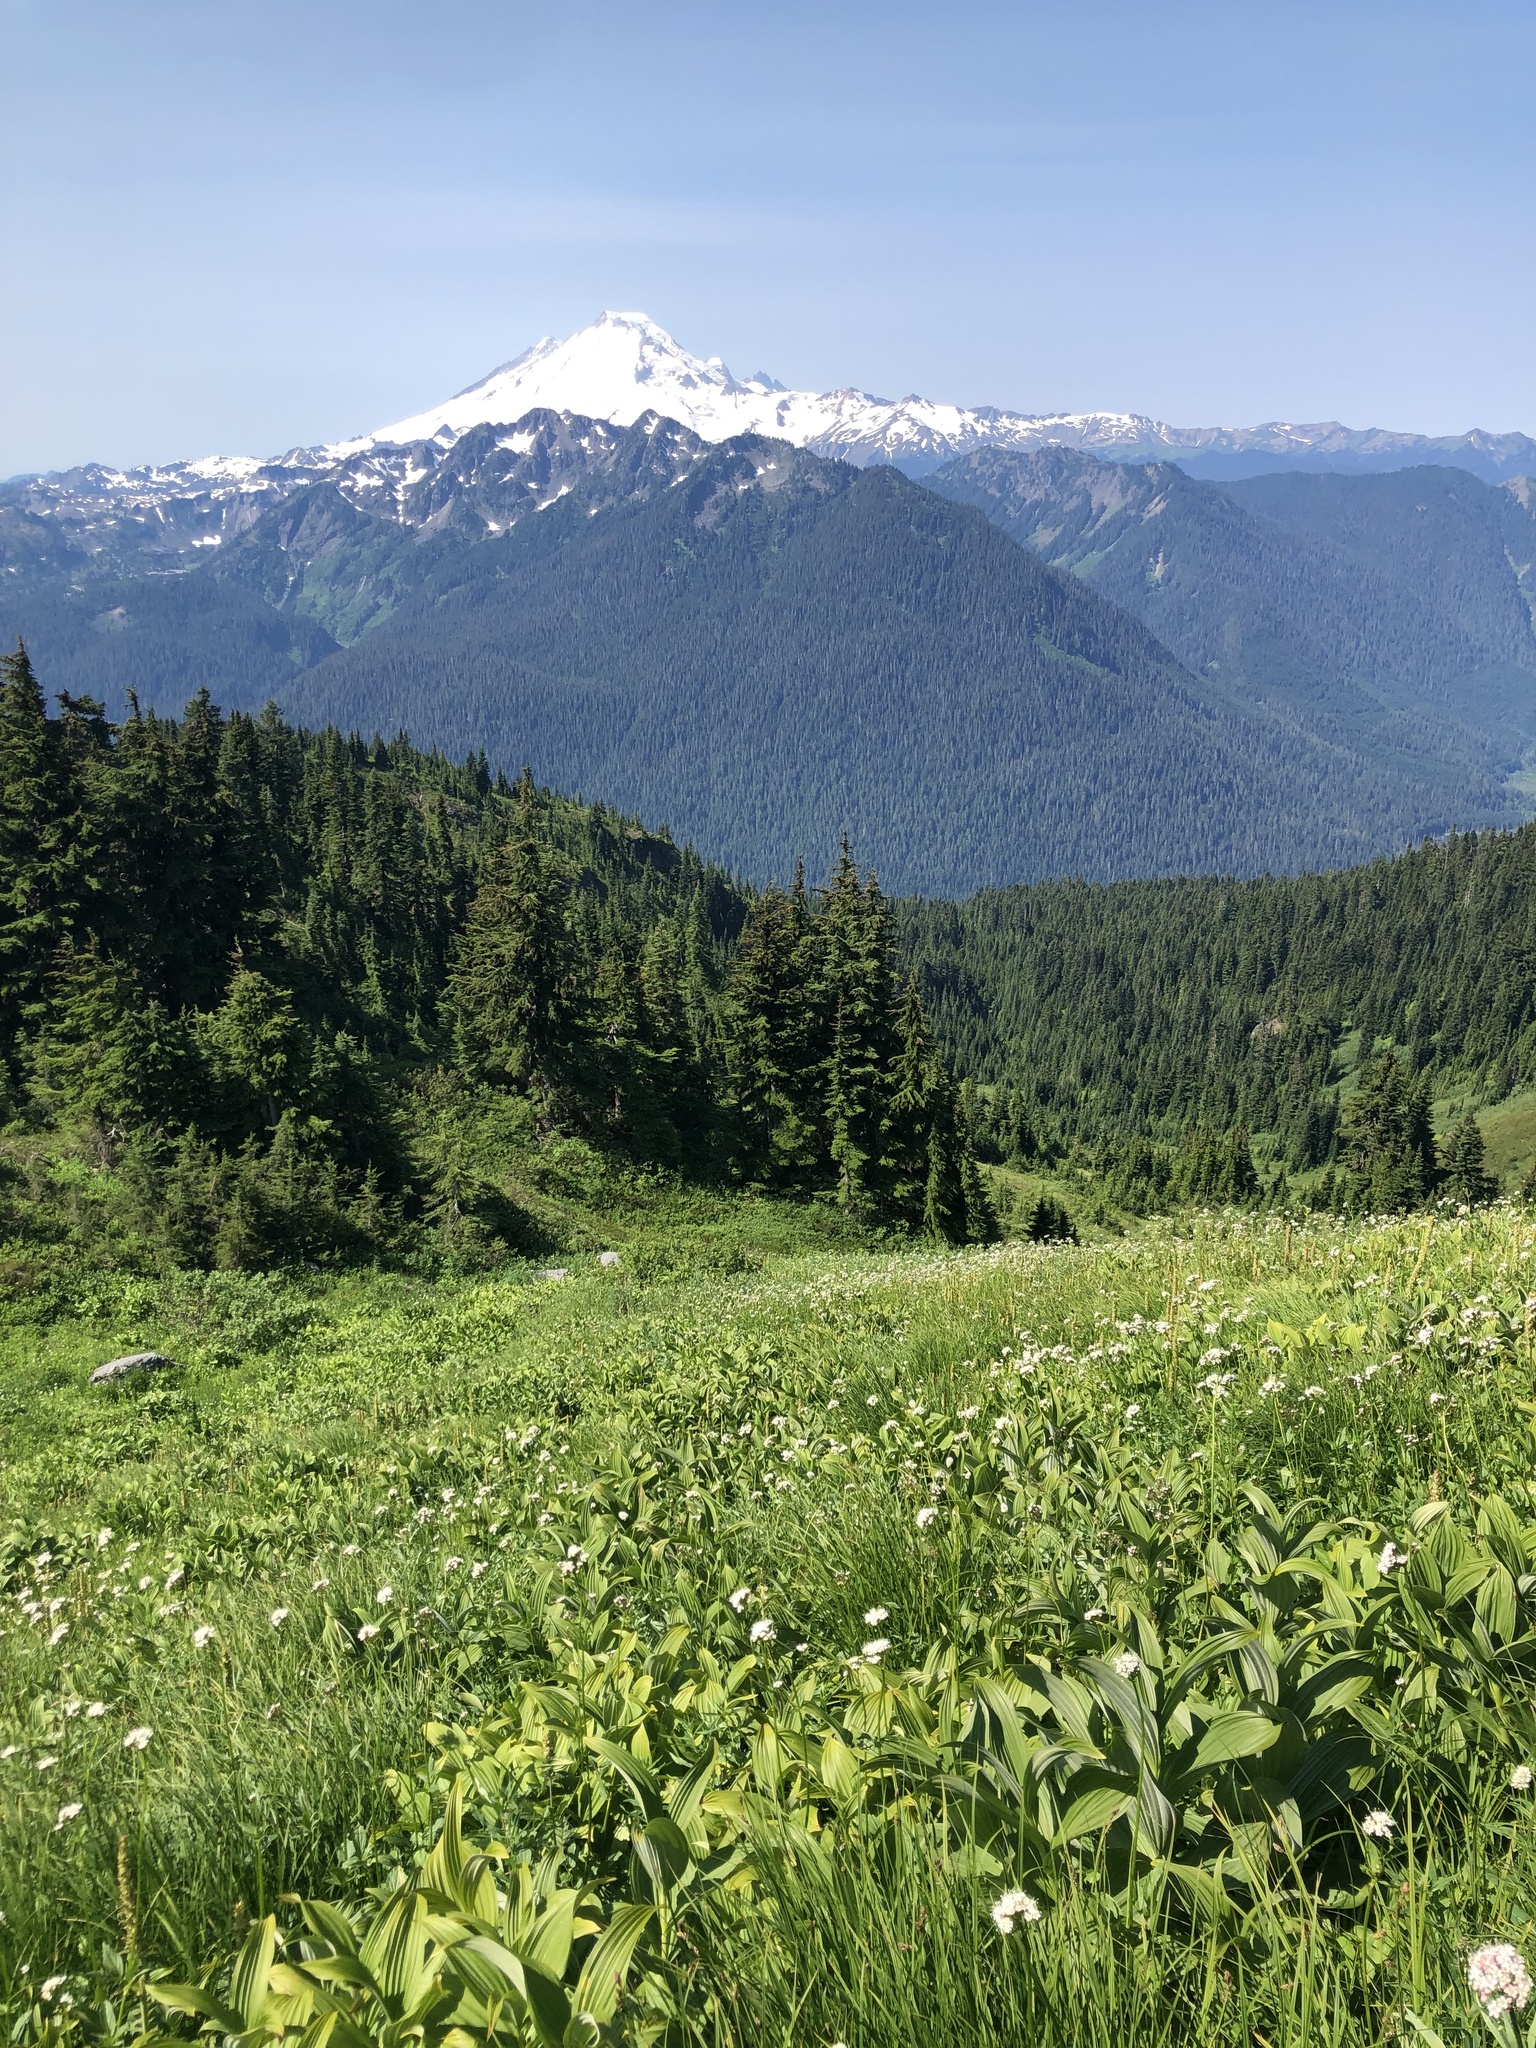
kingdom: Plantae
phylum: Tracheophyta
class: Magnoliopsida
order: Dipsacales
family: Caprifoliaceae
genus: Valeriana
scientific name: Valeriana sitchensis
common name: Pacific valerian
